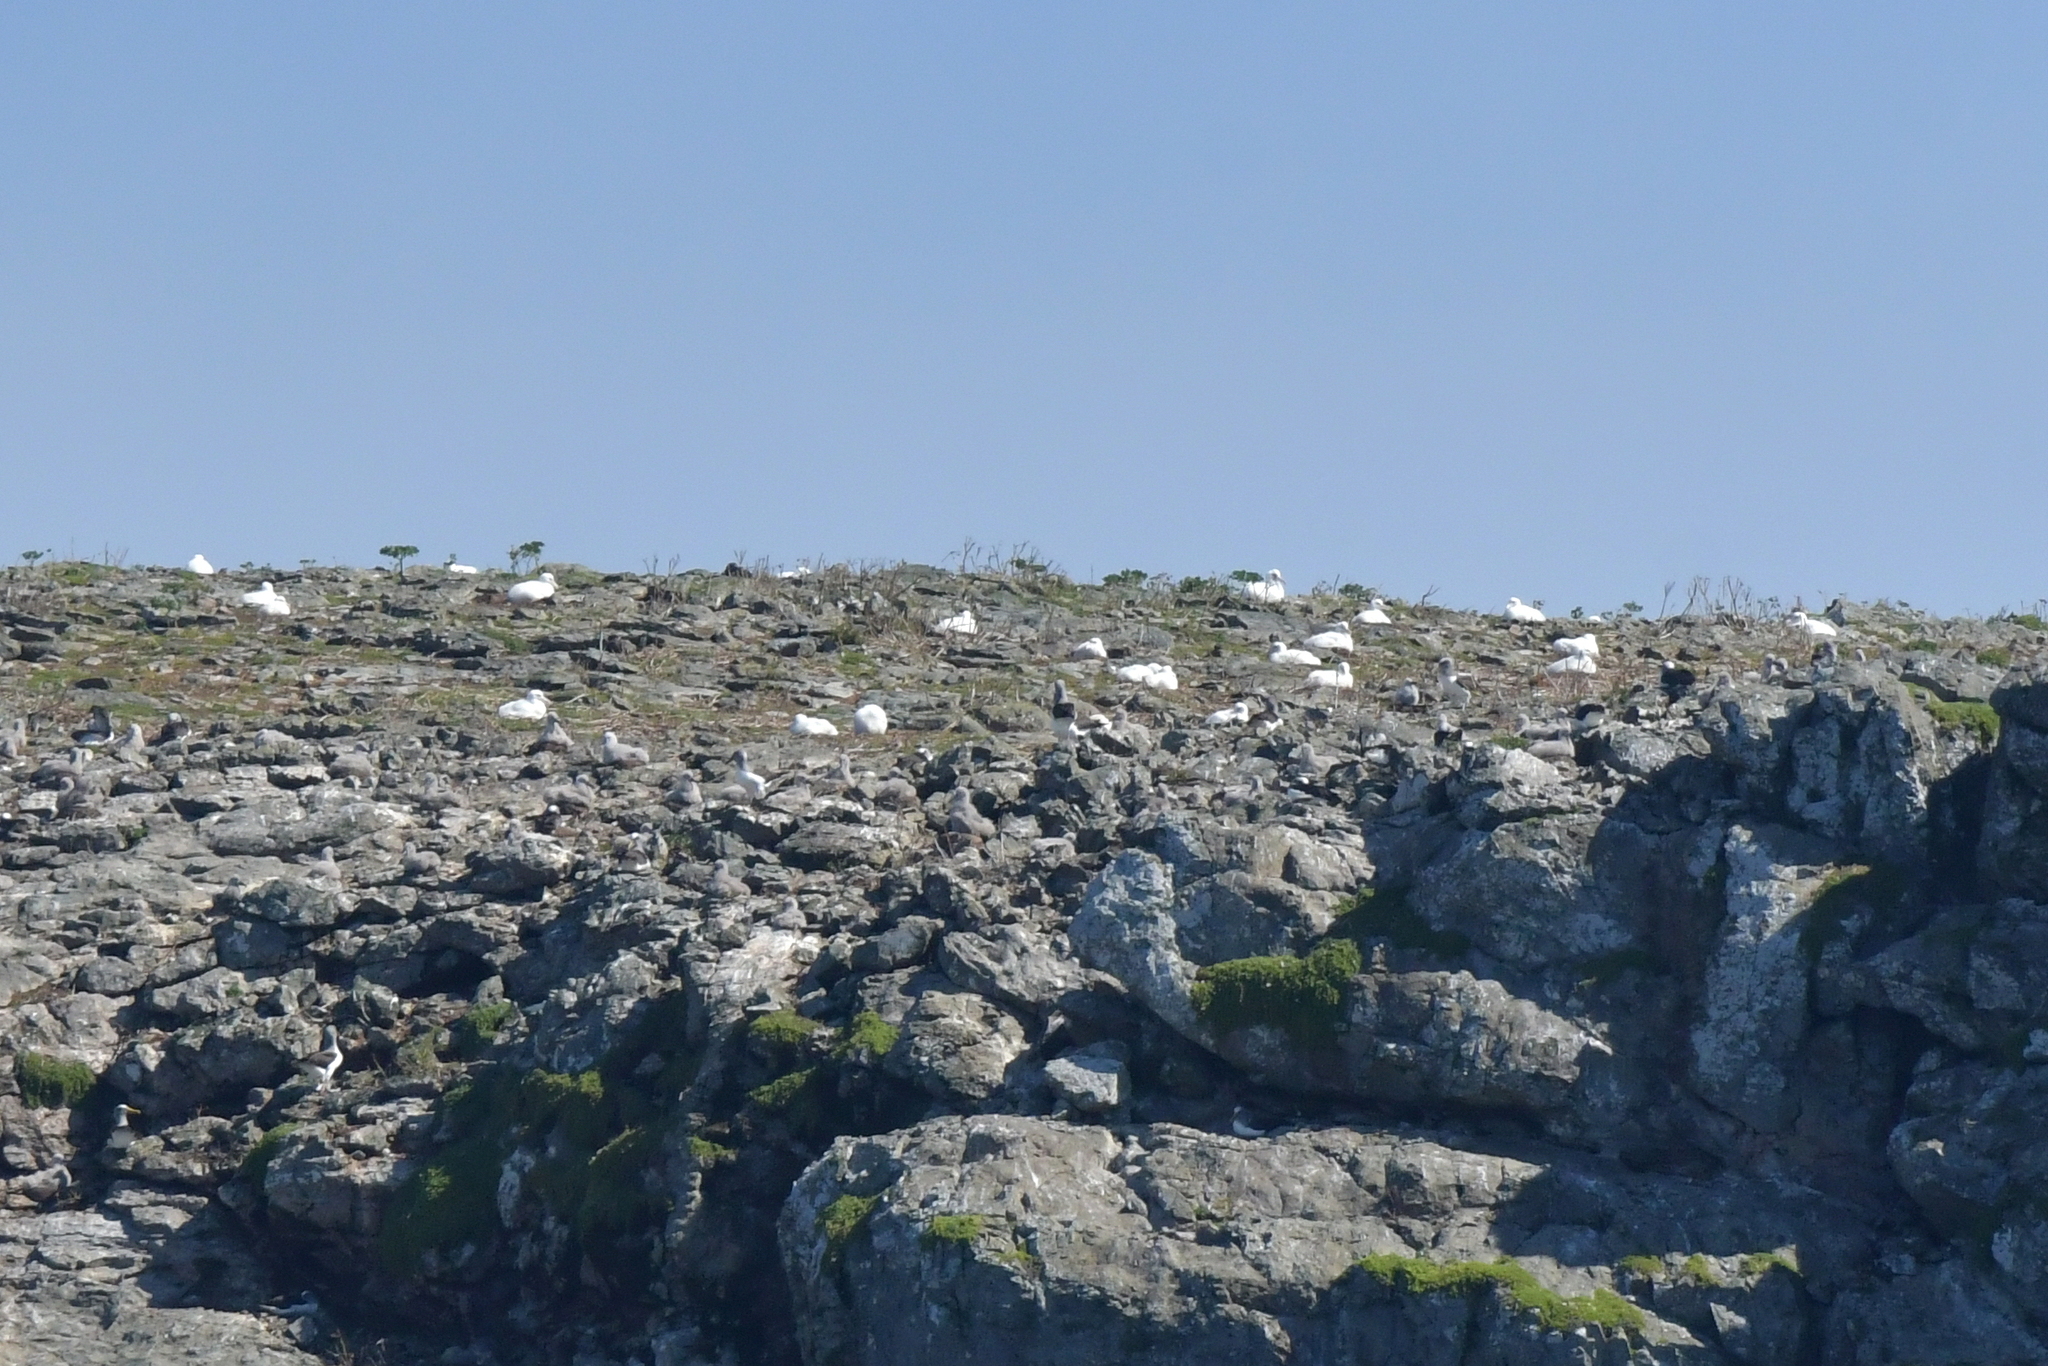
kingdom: Animalia
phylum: Chordata
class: Aves
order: Procellariiformes
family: Diomedeidae
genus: Diomedea
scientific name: Diomedea sanfordi
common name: Northern royal albatross
